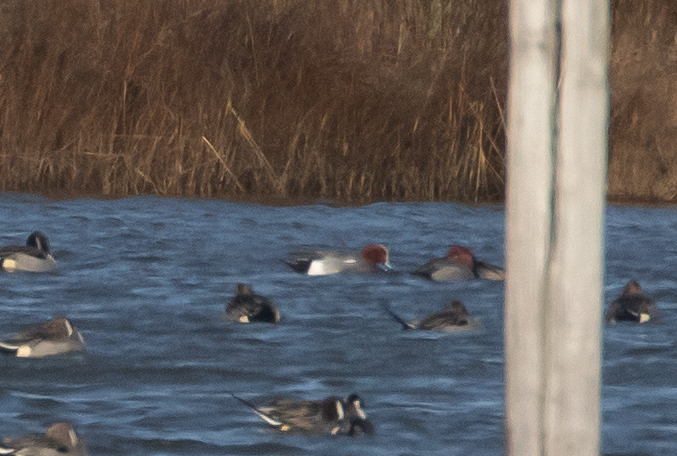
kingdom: Animalia
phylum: Chordata
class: Aves
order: Anseriformes
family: Anatidae
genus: Mareca
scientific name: Mareca penelope
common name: Eurasian wigeon
